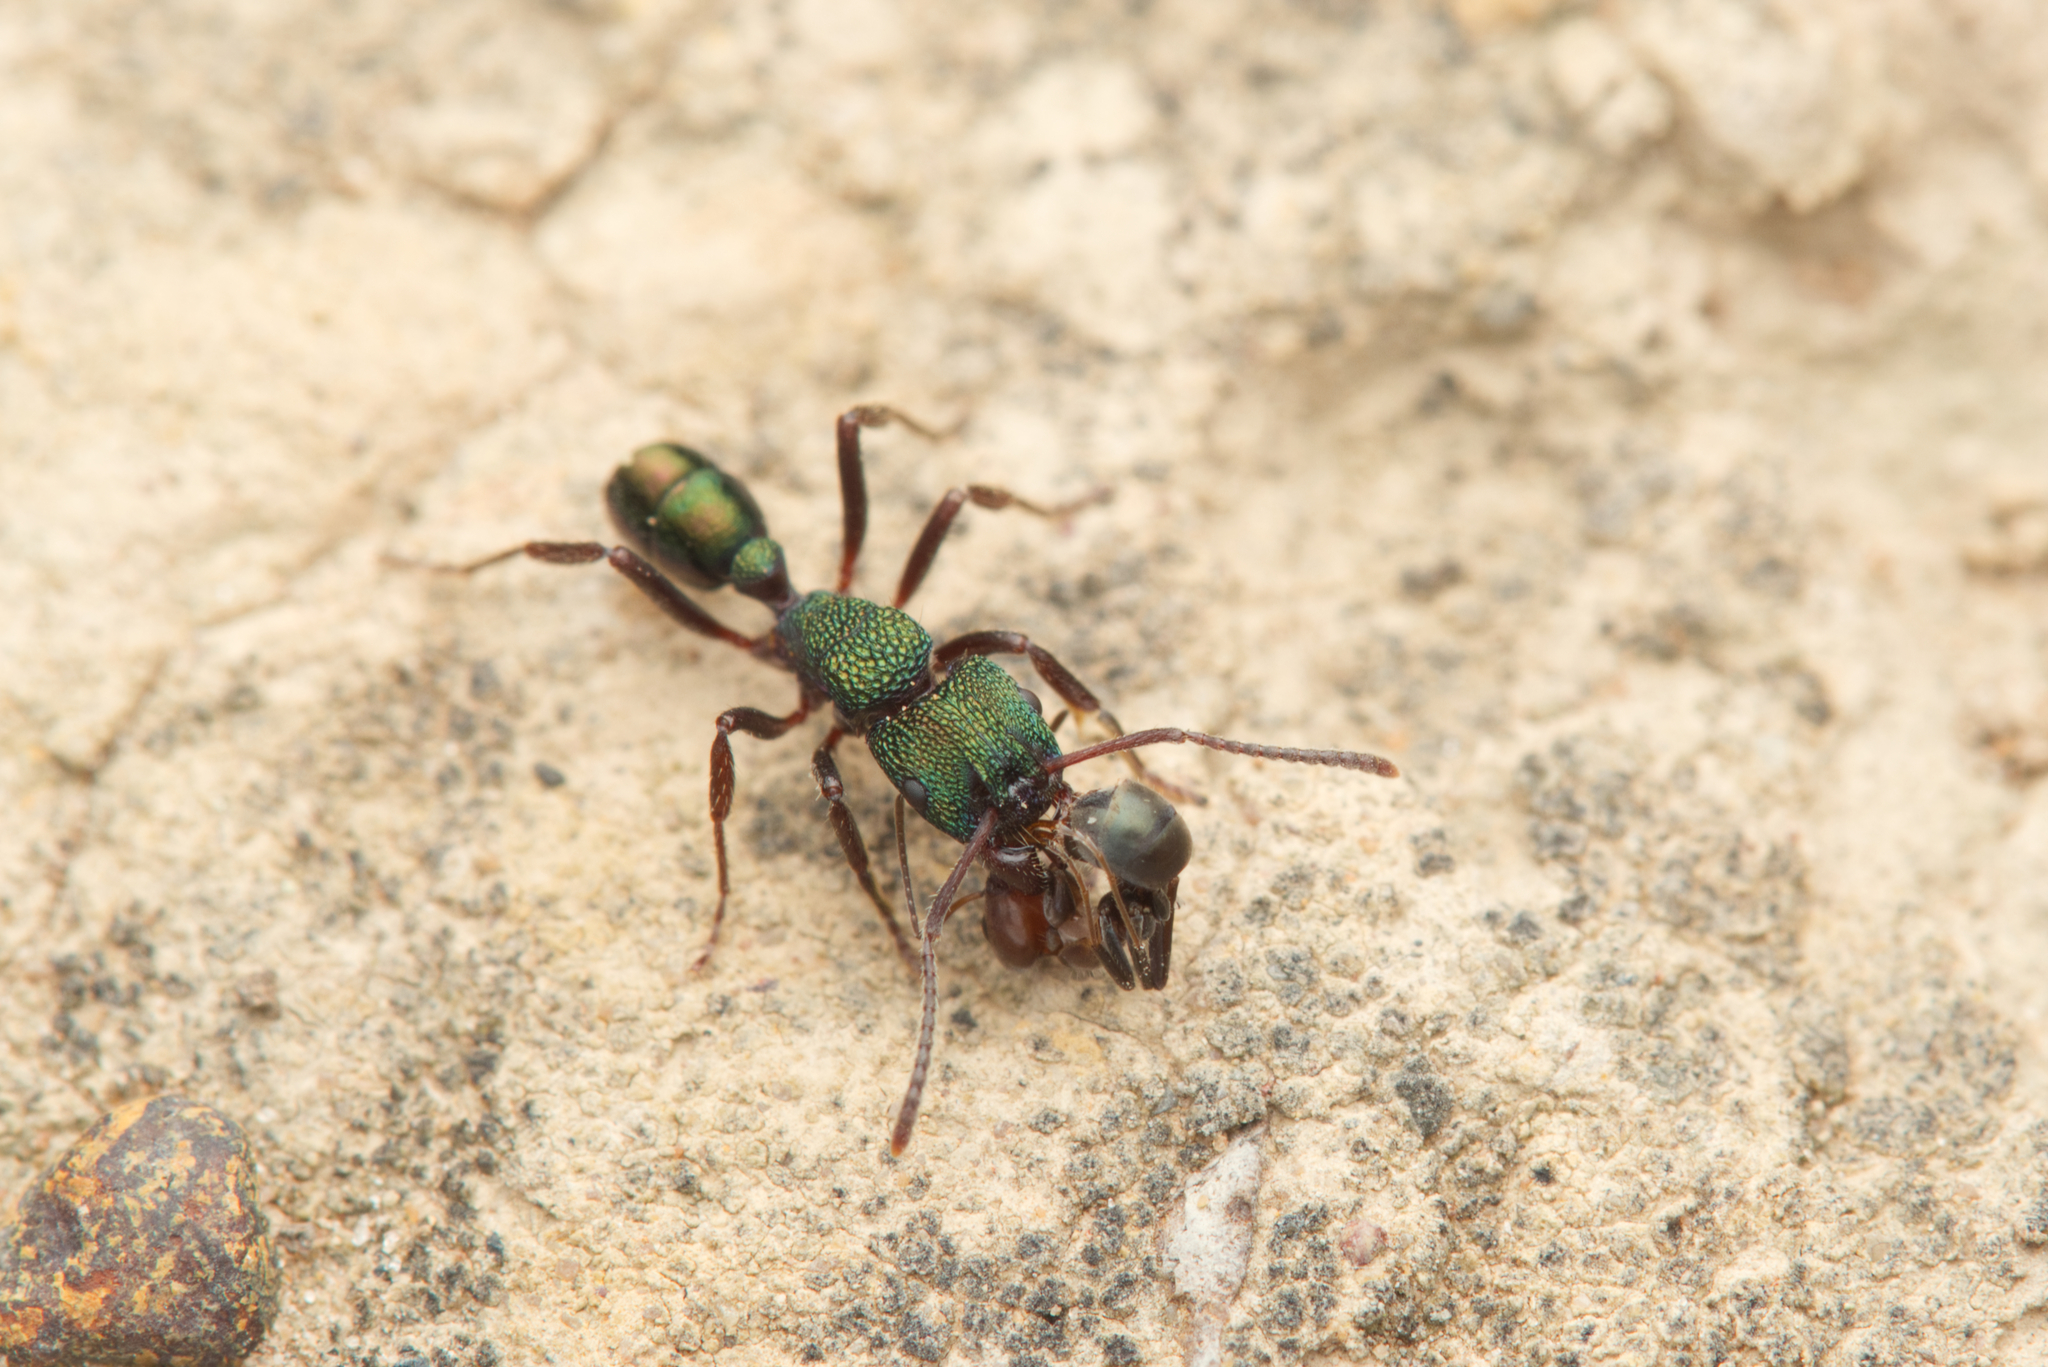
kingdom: Animalia
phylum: Arthropoda
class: Insecta
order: Hymenoptera
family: Formicidae
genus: Rhytidoponera
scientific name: Rhytidoponera metallica
